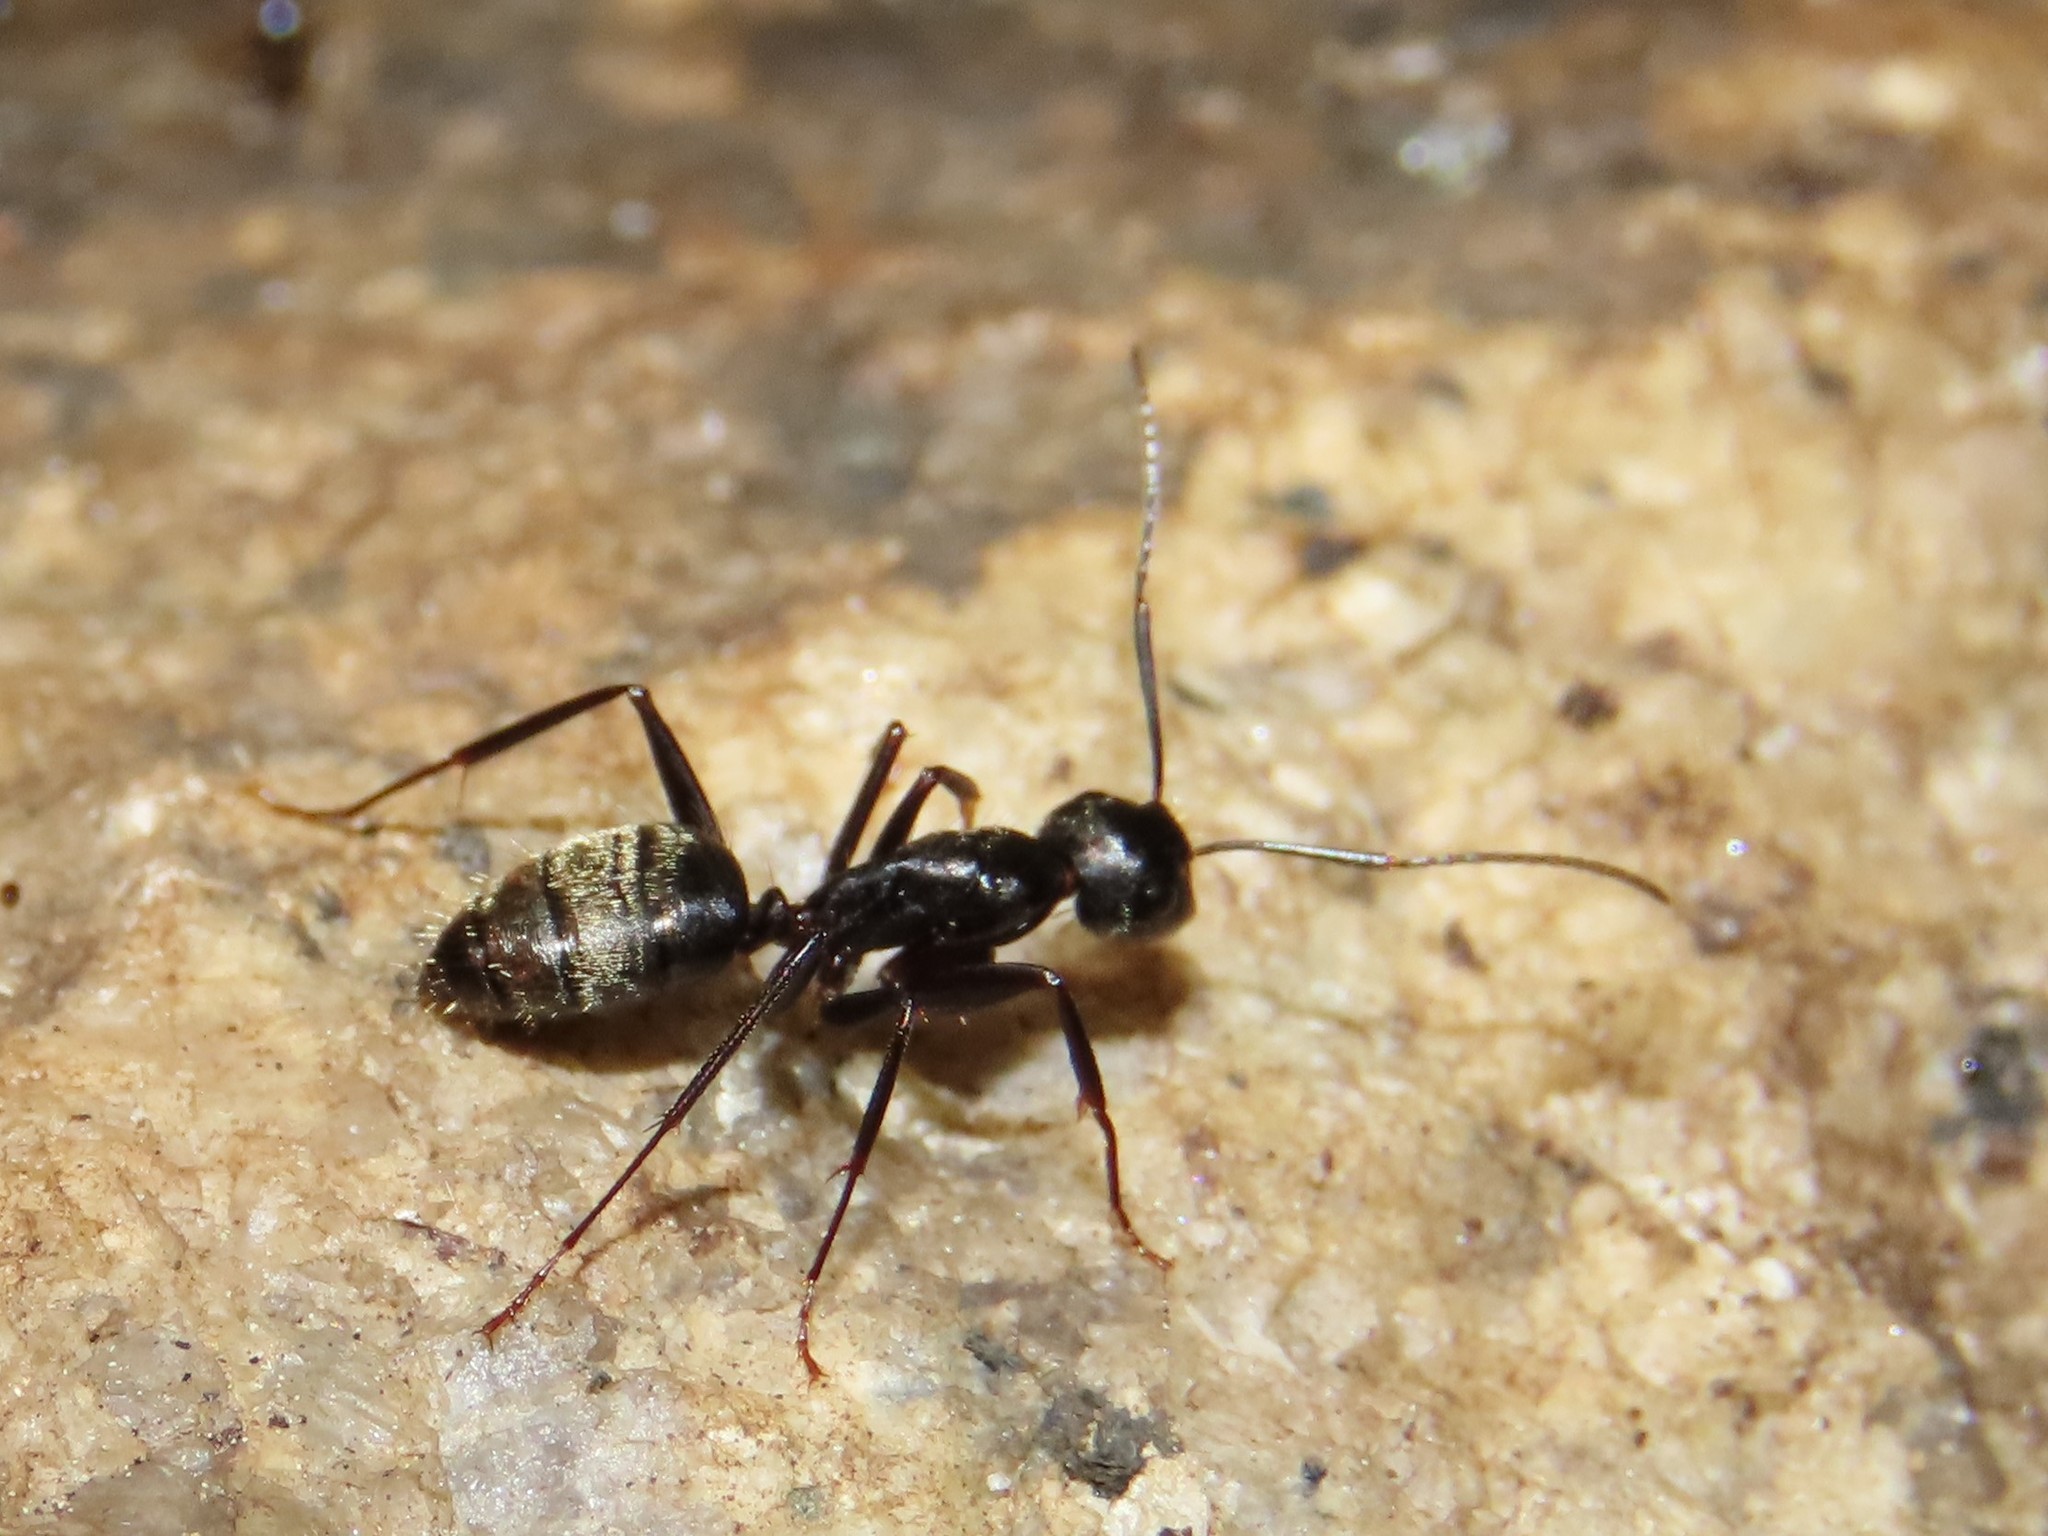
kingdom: Animalia
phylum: Arthropoda
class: Insecta
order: Hymenoptera
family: Formicidae
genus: Camponotus
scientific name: Camponotus pennsylvanicus
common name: Black carpenter ant
